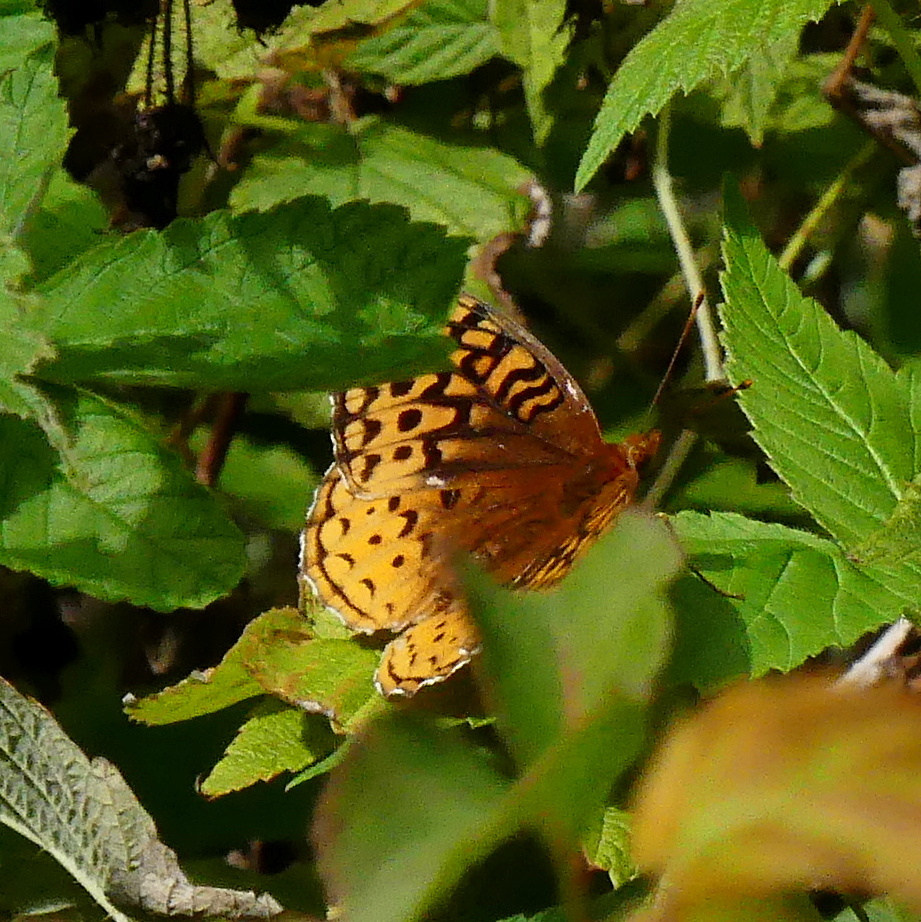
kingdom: Animalia
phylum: Arthropoda
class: Insecta
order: Lepidoptera
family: Nymphalidae
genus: Speyeria
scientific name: Speyeria cybele
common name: Great spangled fritillary
